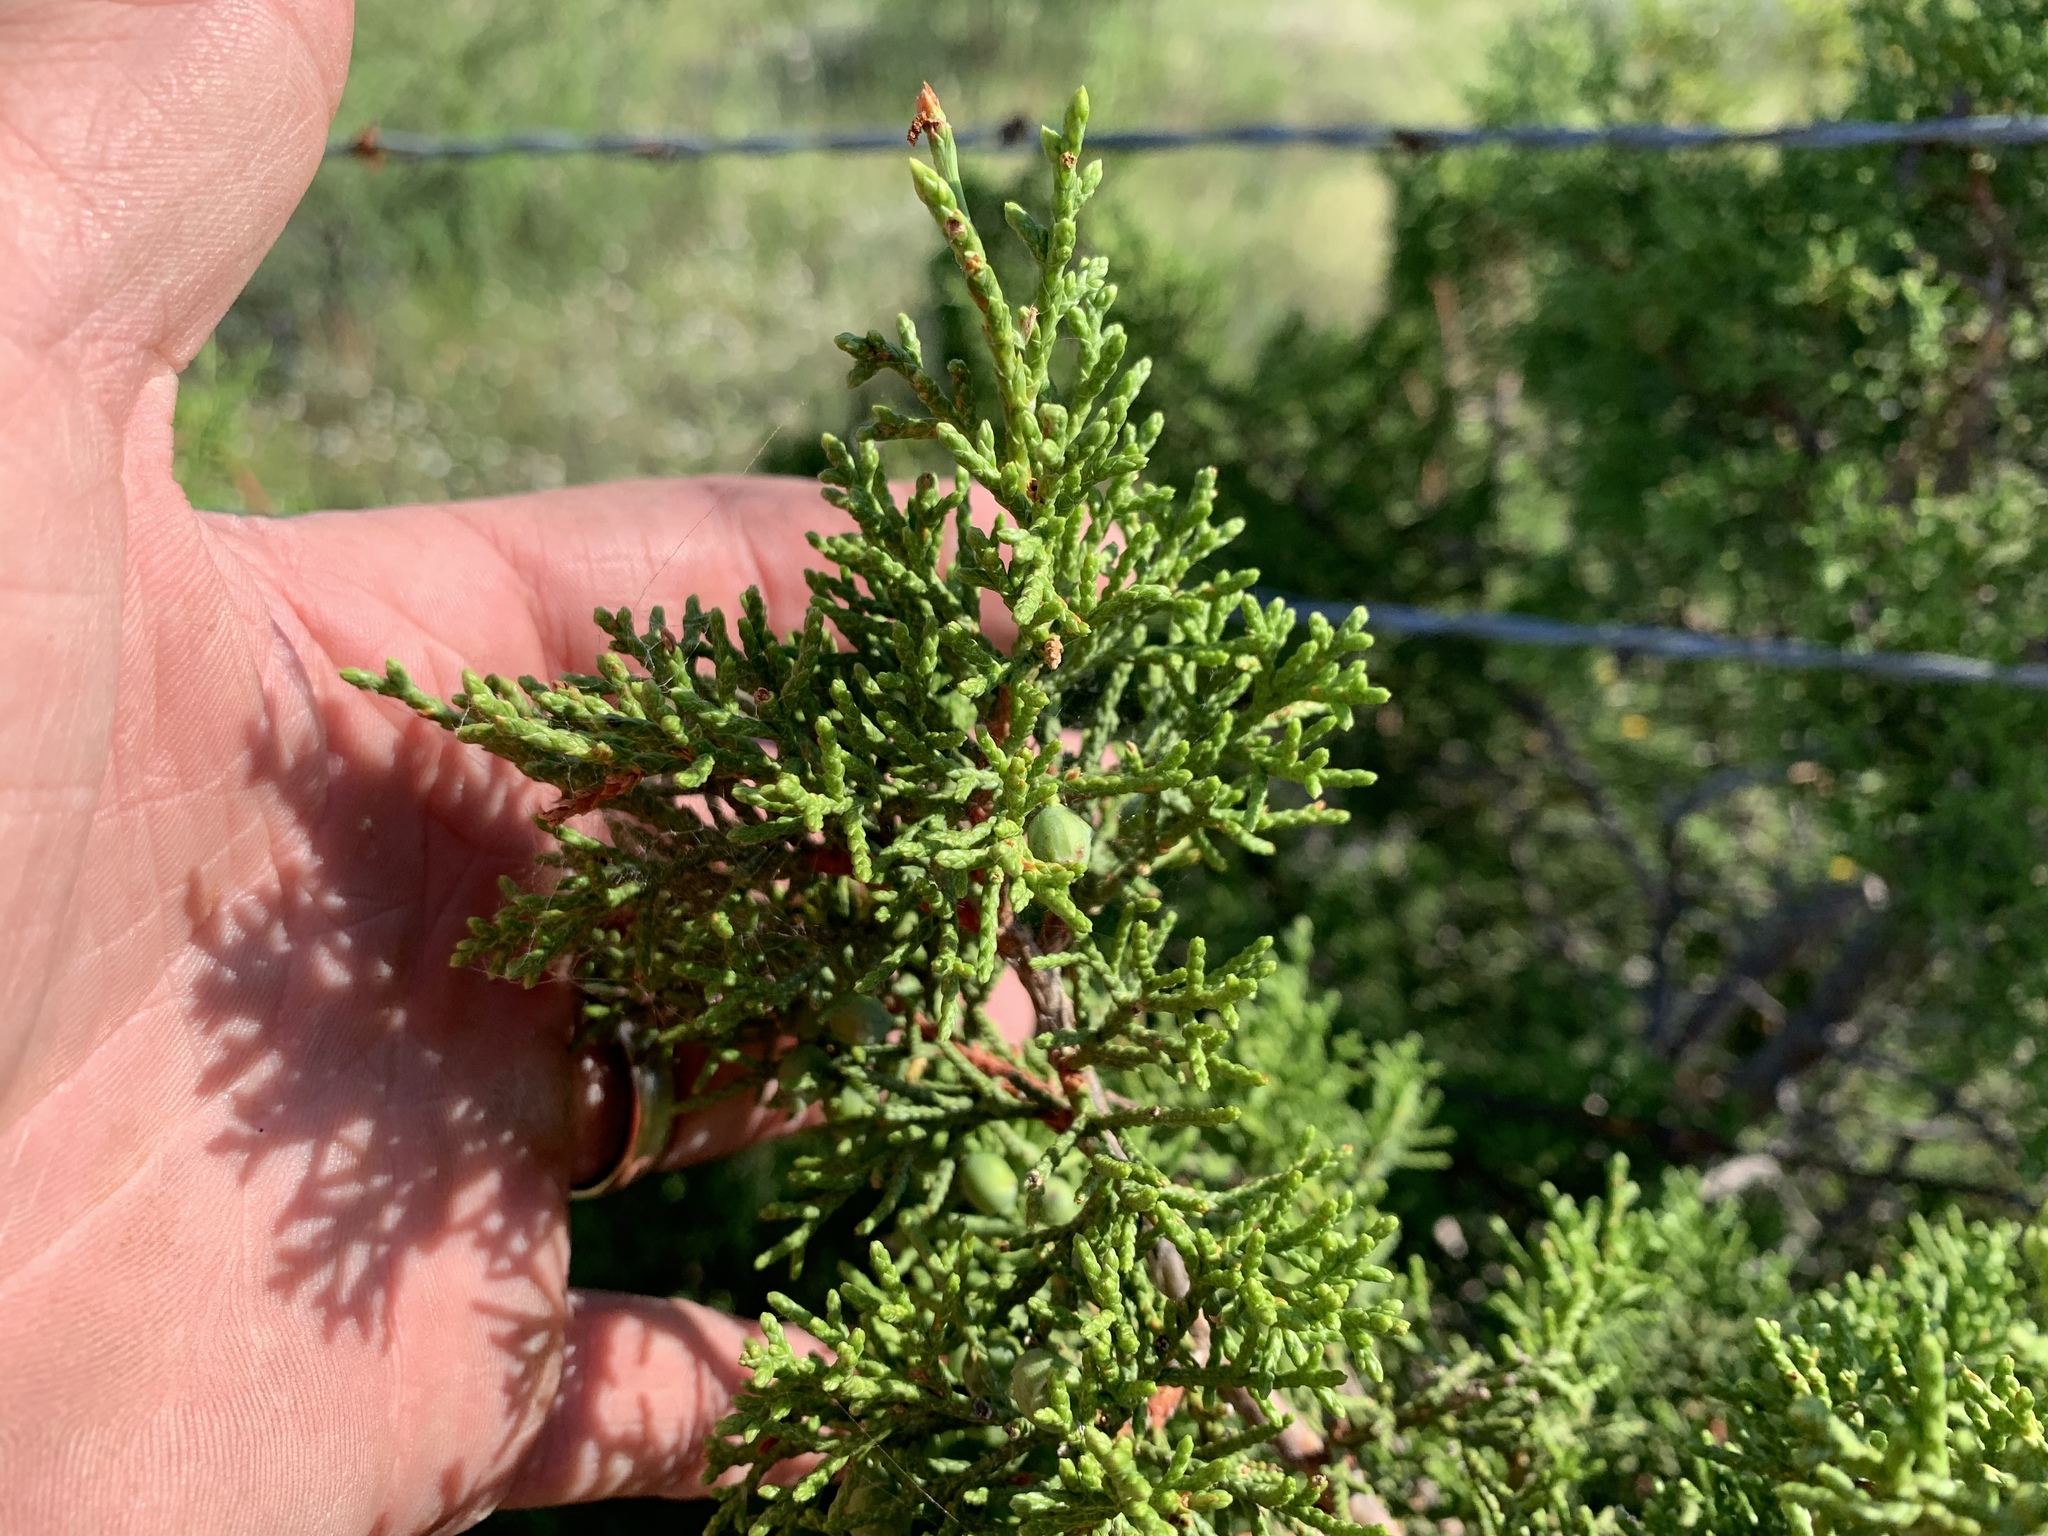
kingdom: Plantae
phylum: Tracheophyta
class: Pinopsida
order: Pinales
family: Cupressaceae
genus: Juniperus
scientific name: Juniperus ashei
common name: Mexican juniper
